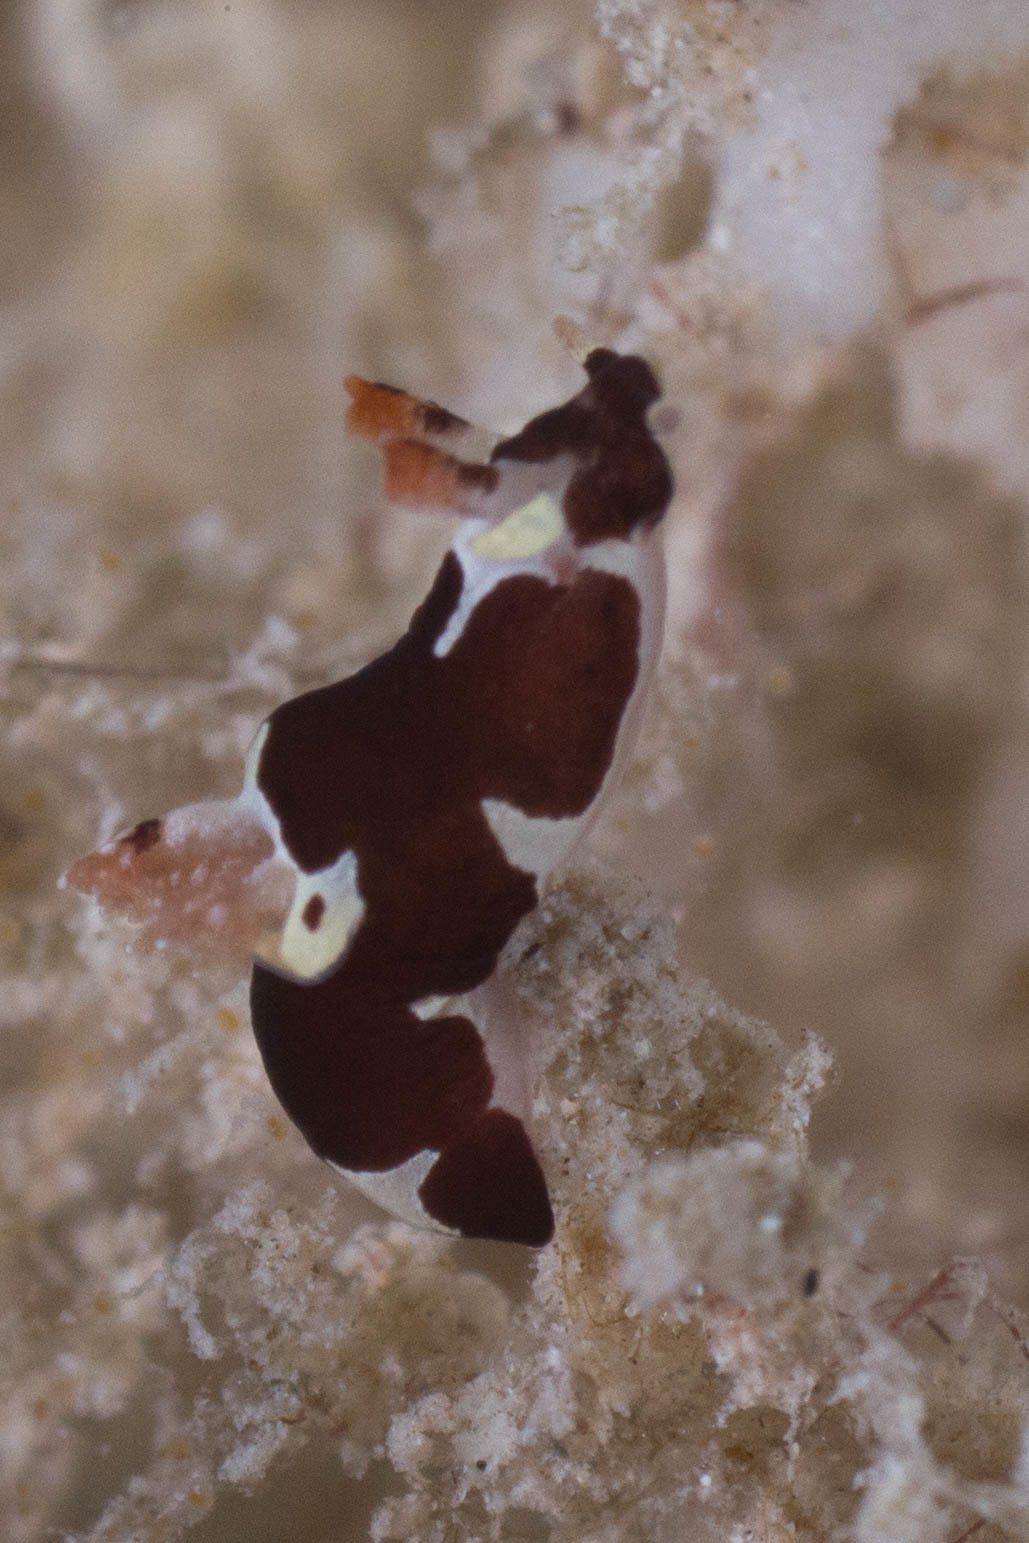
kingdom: Animalia
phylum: Mollusca
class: Gastropoda
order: Nudibranchia
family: Goniodorididae
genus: Trapania
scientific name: Trapania safracornia
